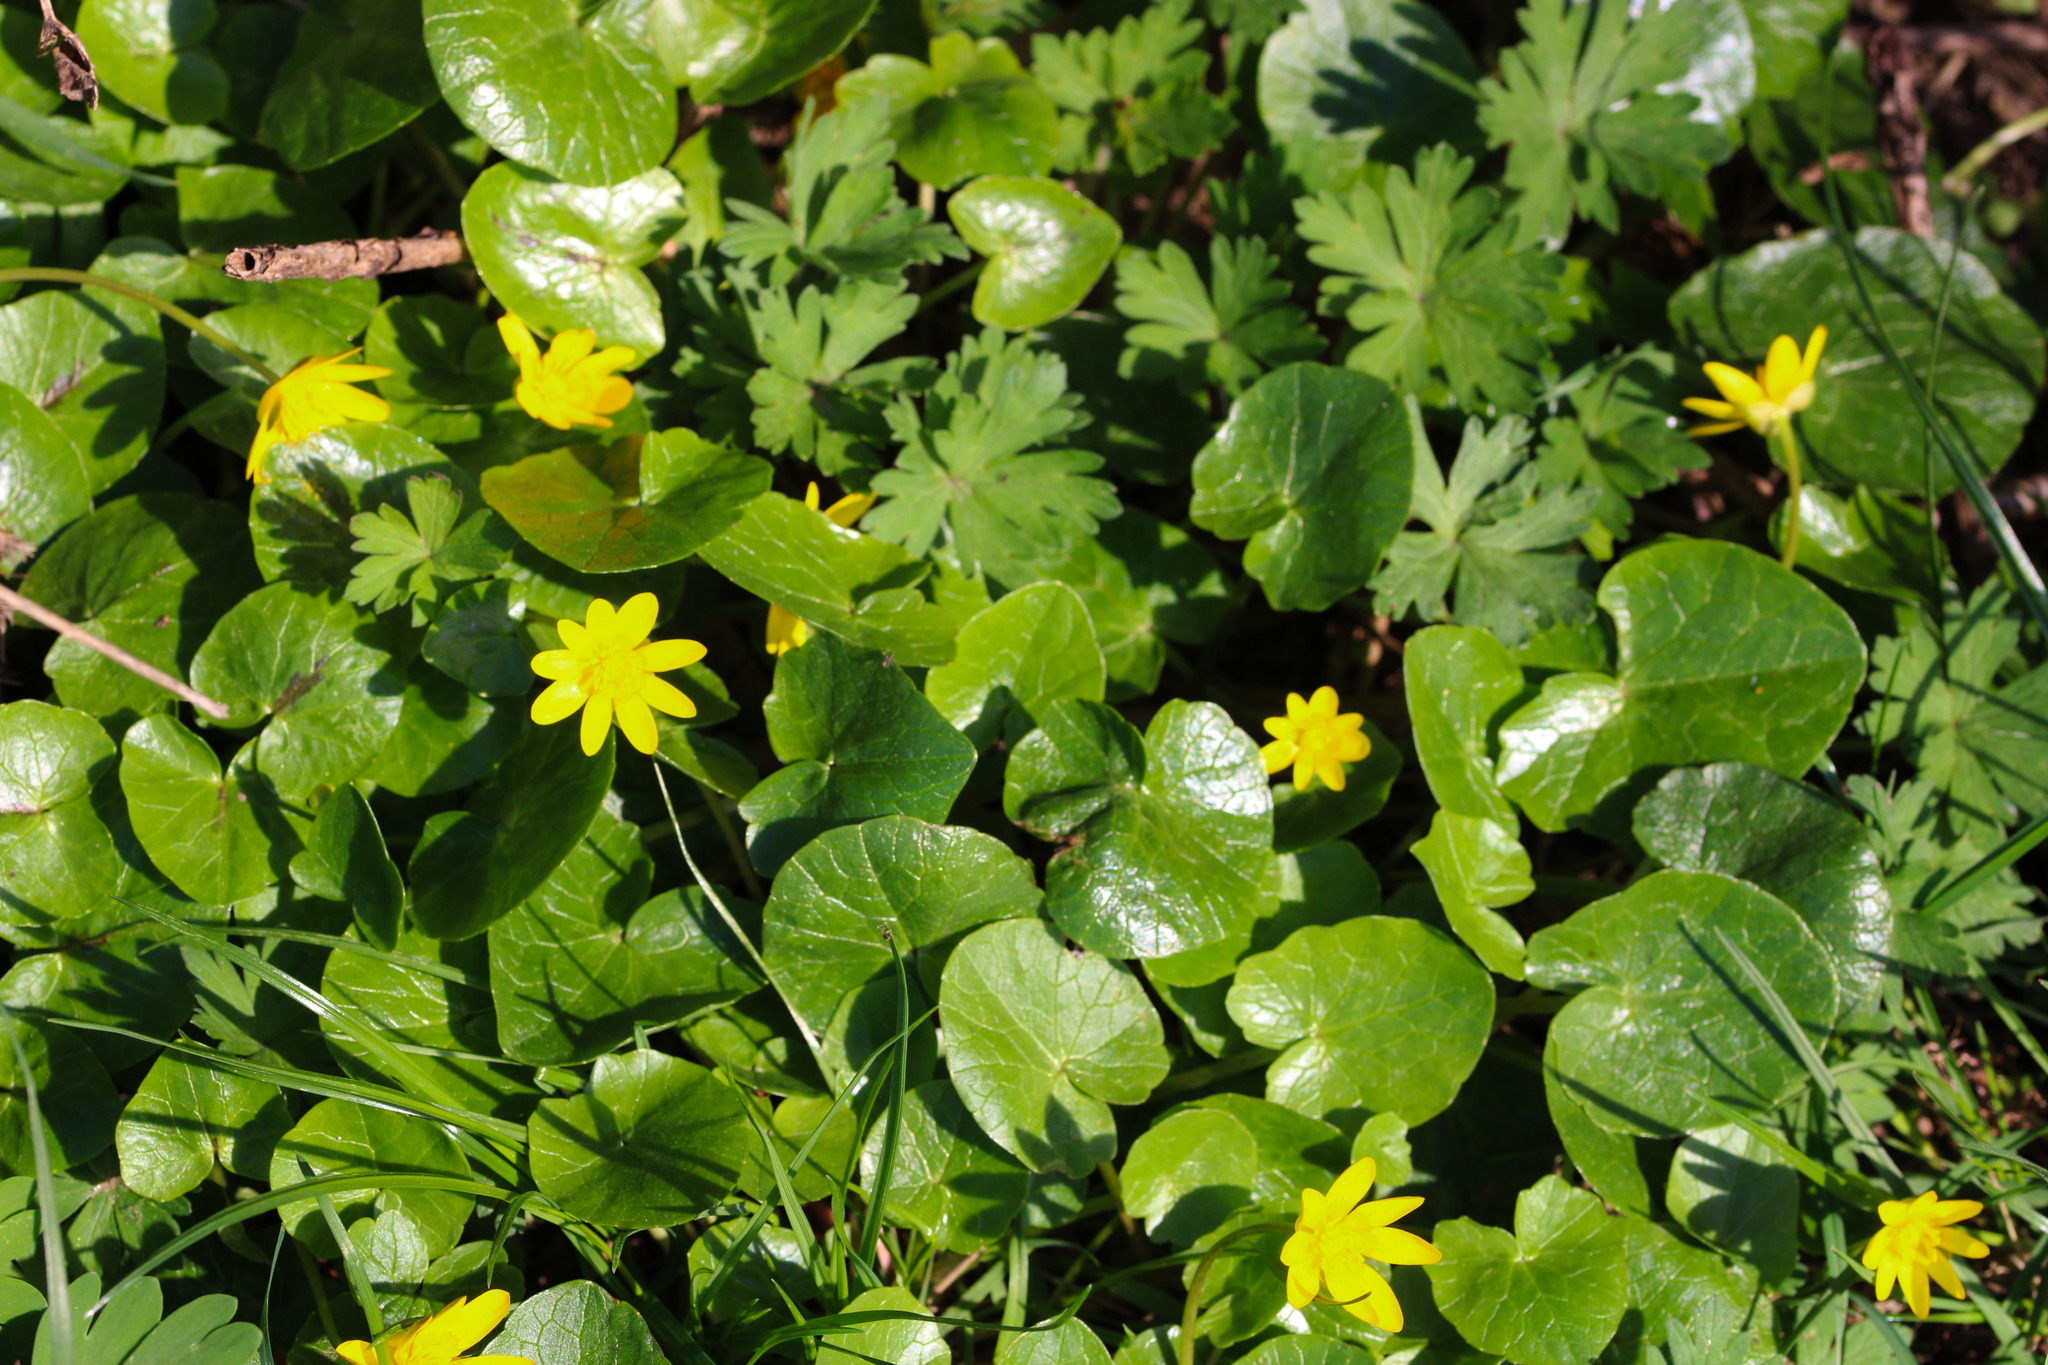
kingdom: Plantae
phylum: Tracheophyta
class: Magnoliopsida
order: Ranunculales
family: Ranunculaceae
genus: Ficaria
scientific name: Ficaria verna
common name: Lesser celandine
